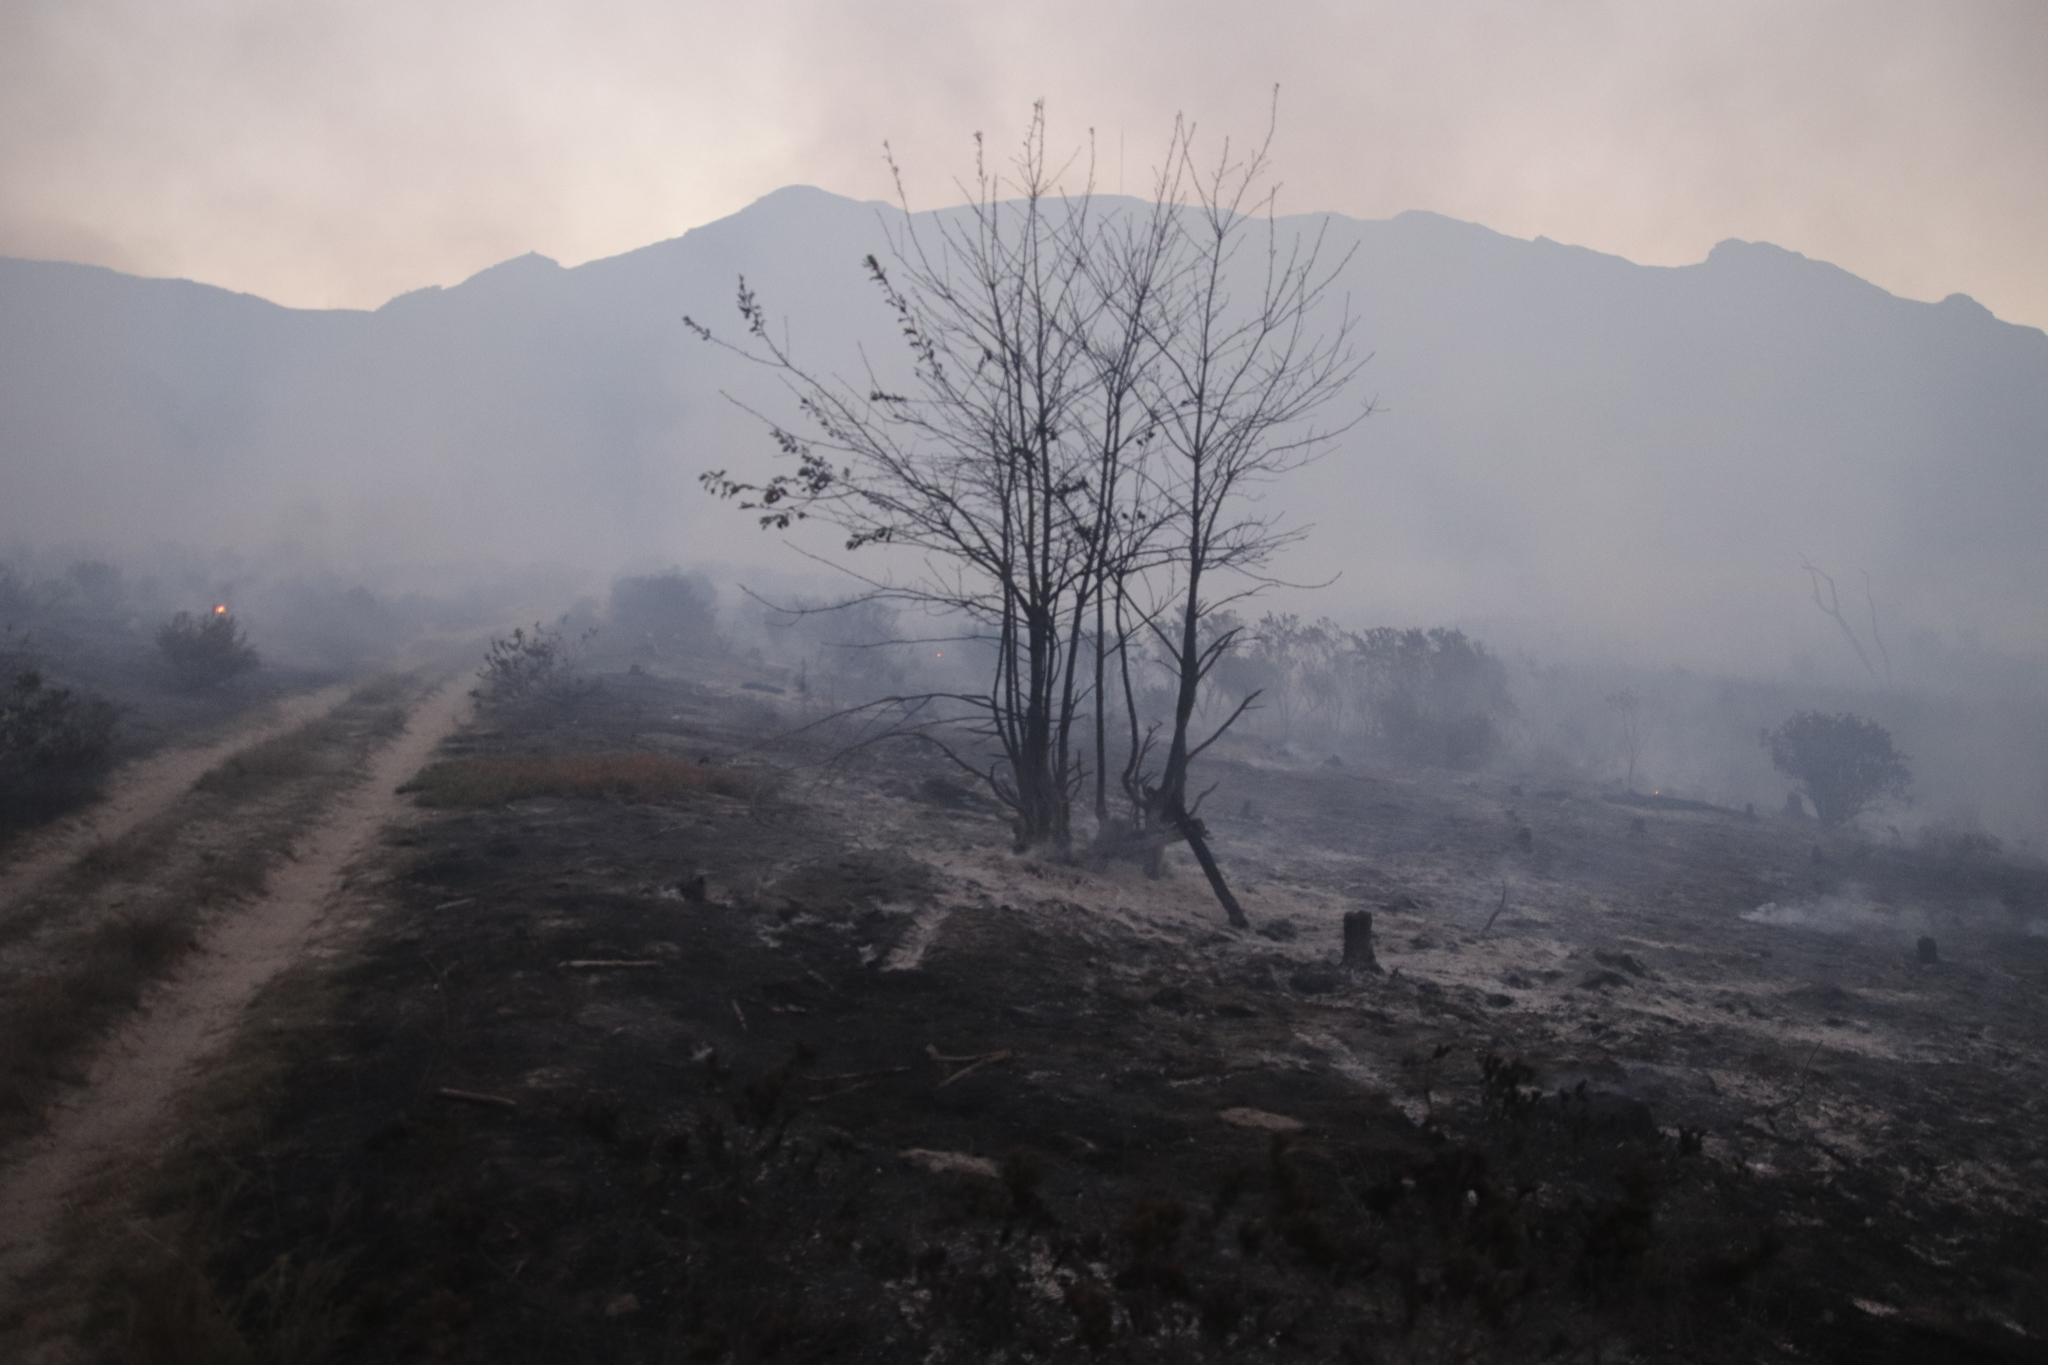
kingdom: Plantae
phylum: Tracheophyta
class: Magnoliopsida
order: Fagales
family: Fagaceae
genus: Quercus
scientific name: Quercus robur
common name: Pedunculate oak
